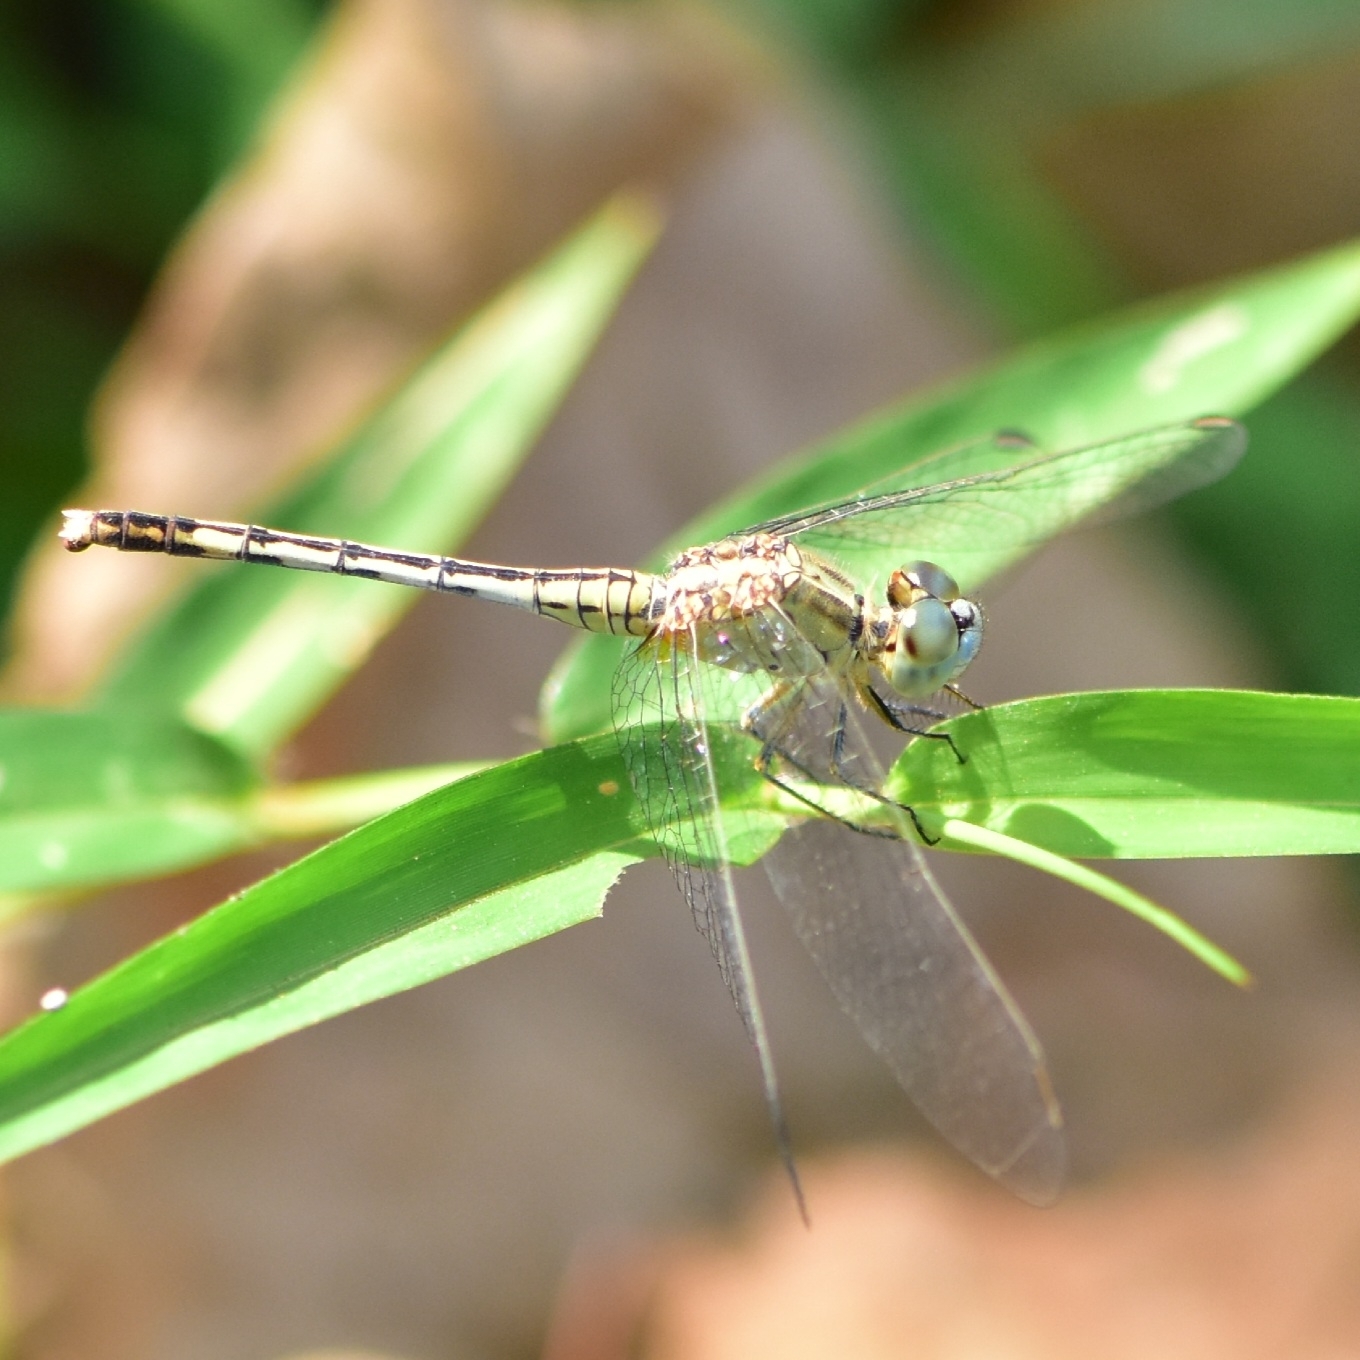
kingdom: Animalia
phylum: Arthropoda
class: Insecta
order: Odonata
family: Libellulidae
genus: Diplacodes
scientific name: Diplacodes trivialis
